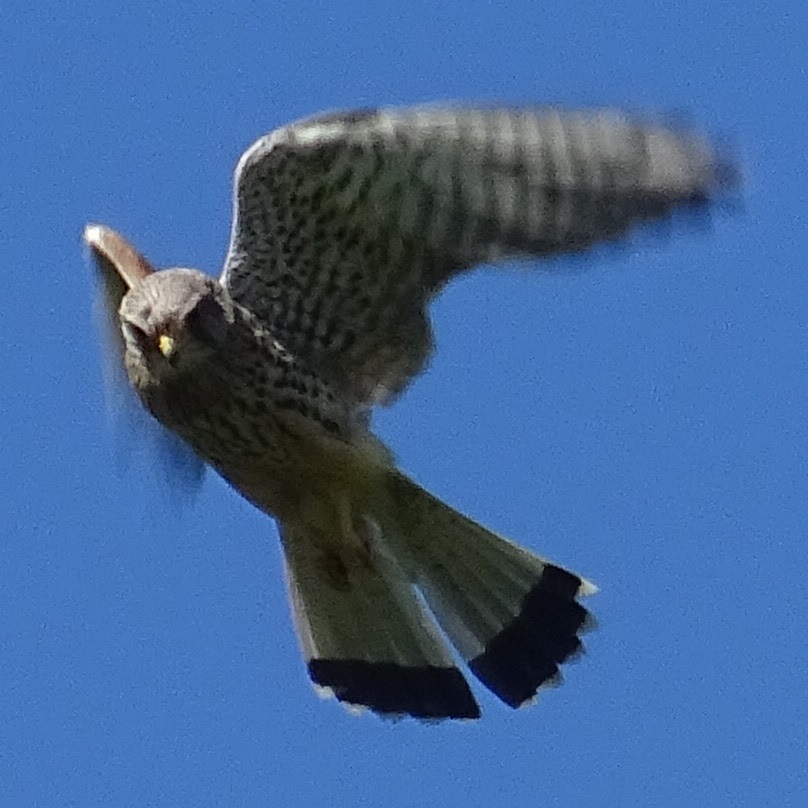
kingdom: Animalia
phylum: Chordata
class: Aves
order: Falconiformes
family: Falconidae
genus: Falco
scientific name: Falco tinnunculus
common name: Common kestrel
